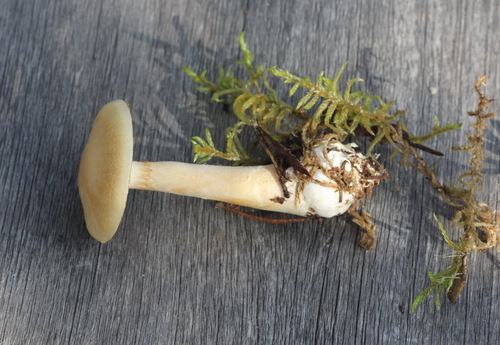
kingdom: Fungi
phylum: Basidiomycota
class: Agaricomycetes
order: Agaricales
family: Cortinariaceae
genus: Thaxterogaster
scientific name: Thaxterogaster pinophilus
